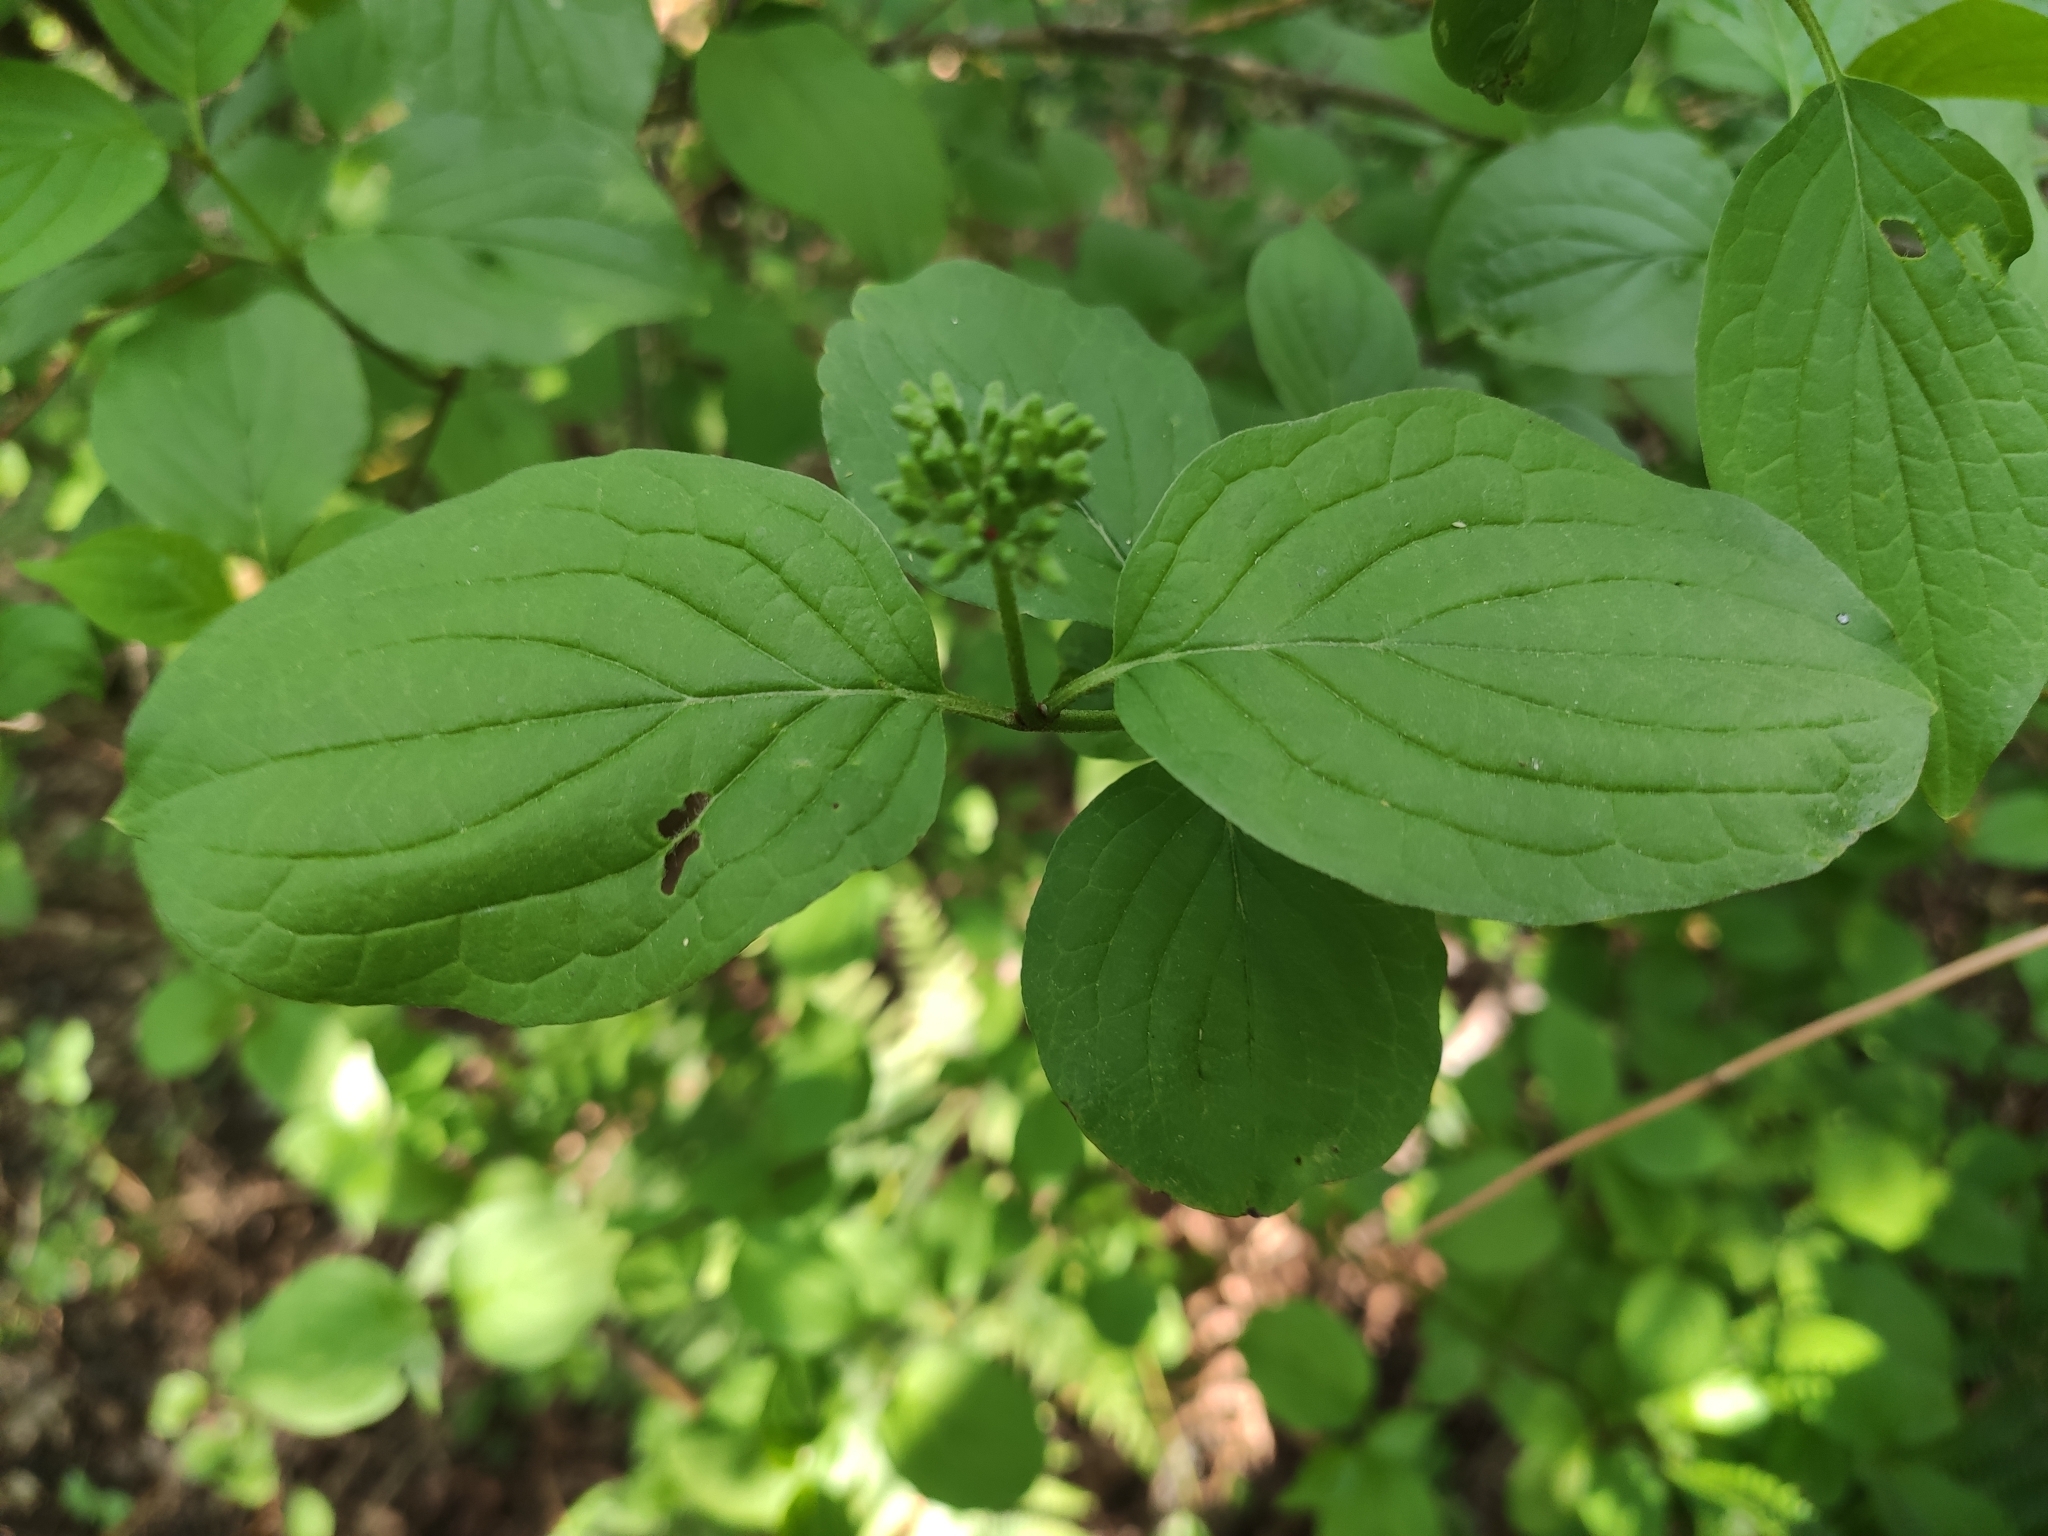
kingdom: Plantae
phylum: Tracheophyta
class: Magnoliopsida
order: Cornales
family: Cornaceae
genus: Cornus
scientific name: Cornus sanguinea
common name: Dogwood
